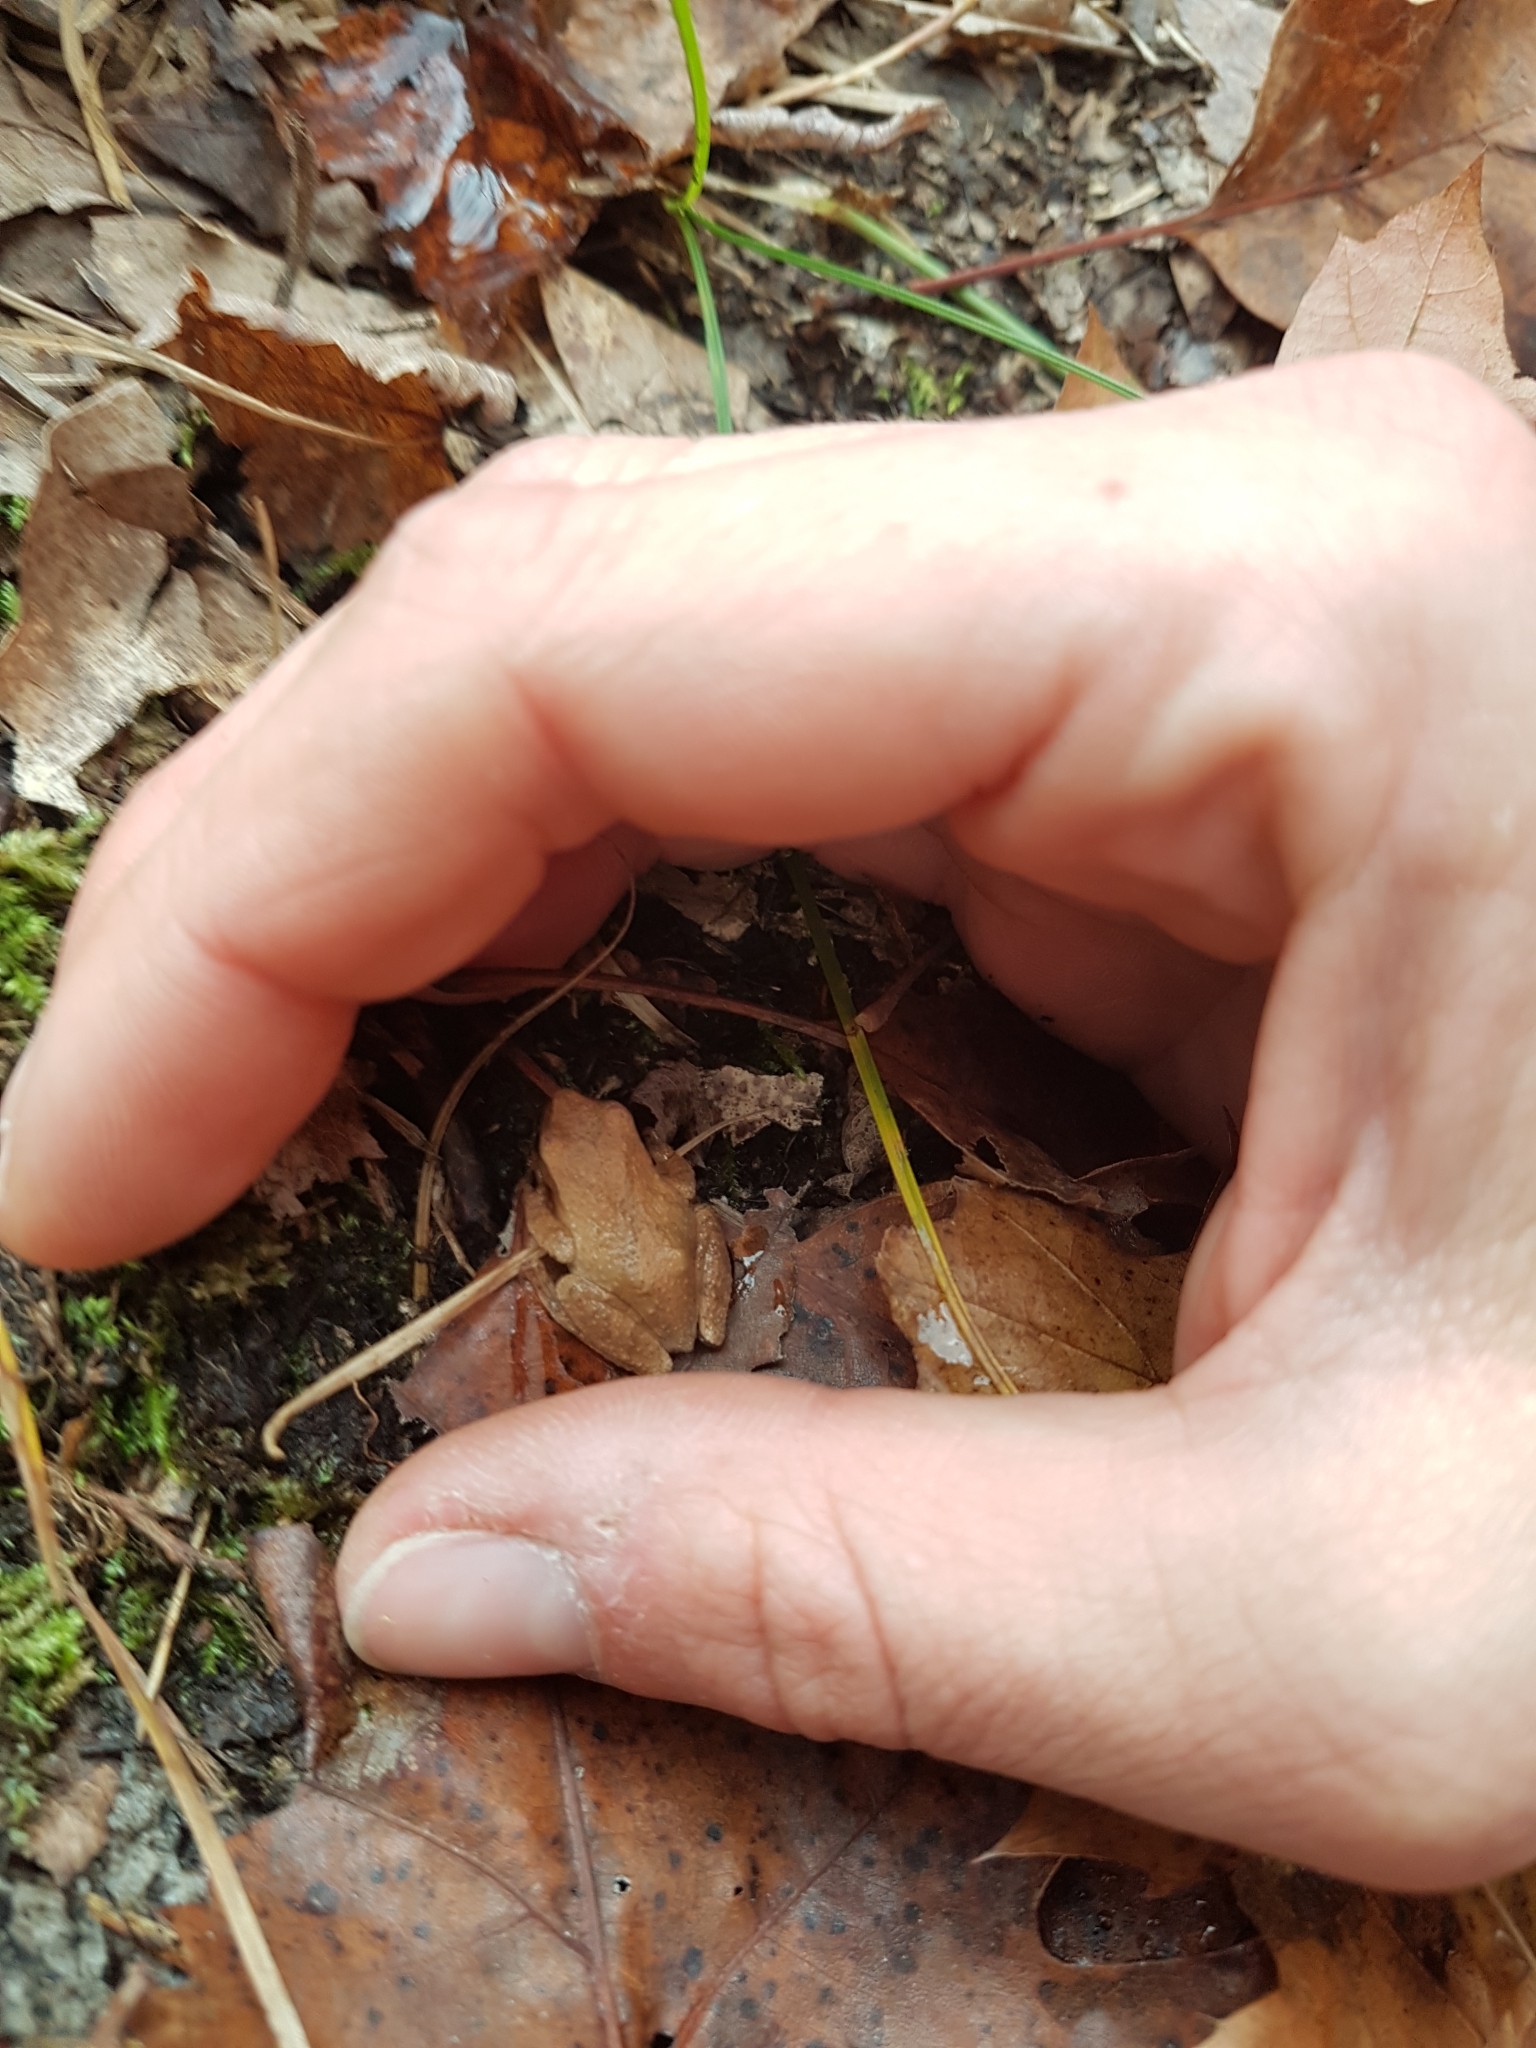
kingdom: Animalia
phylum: Chordata
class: Amphibia
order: Anura
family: Hylidae
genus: Pseudacris
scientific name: Pseudacris crucifer
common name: Spring peeper
